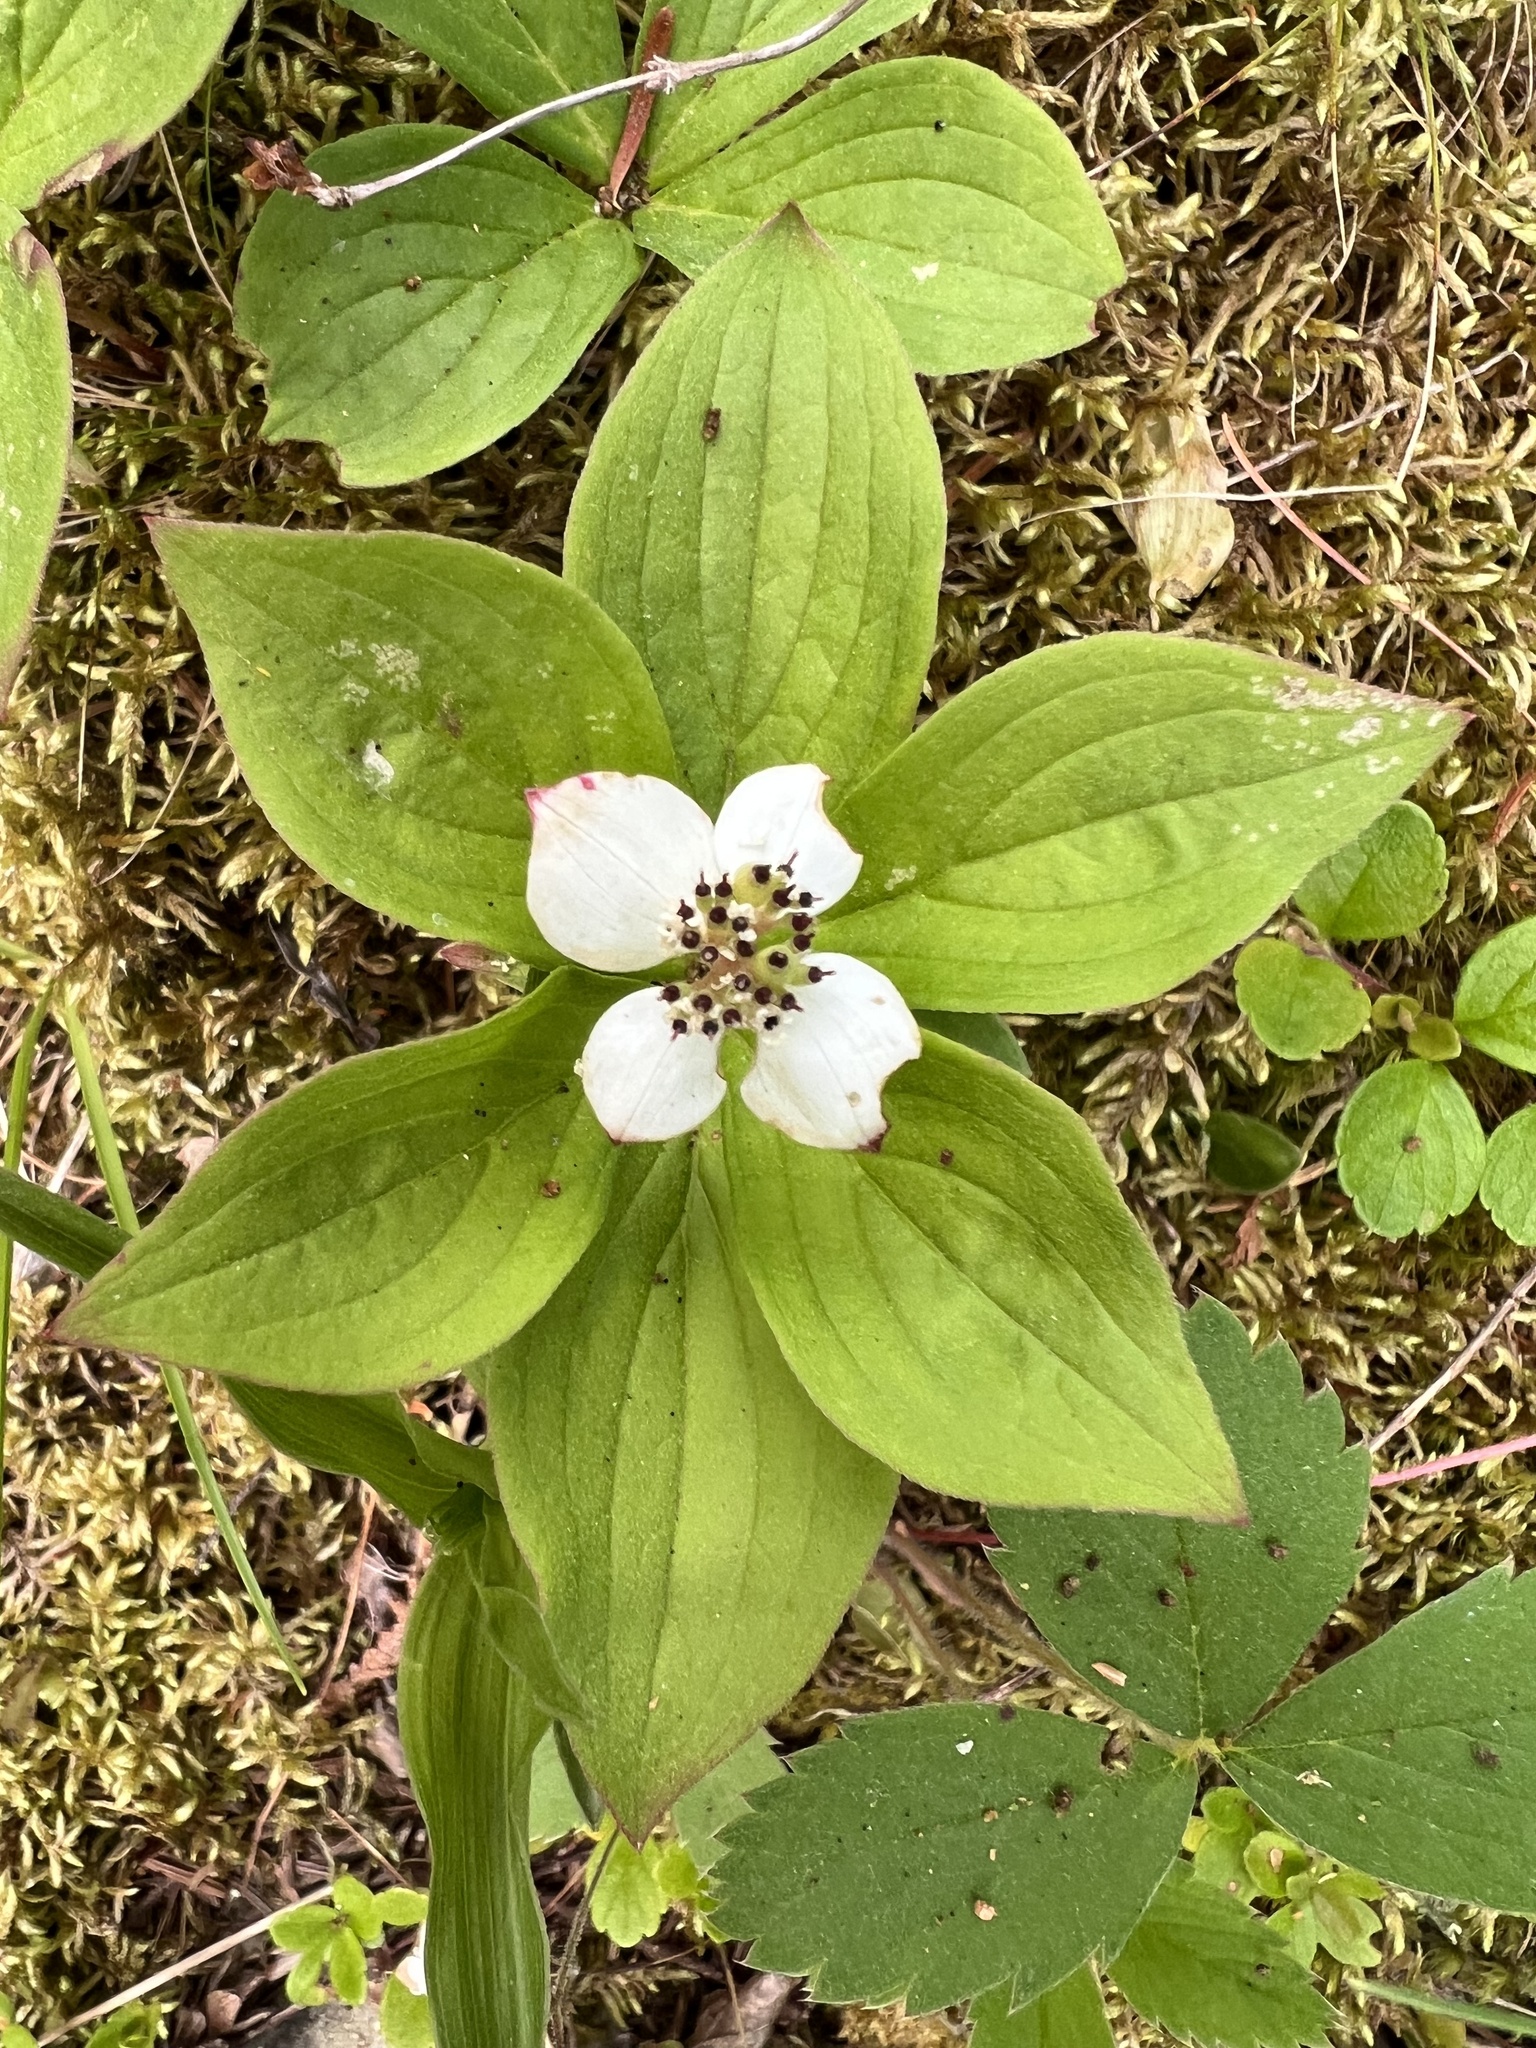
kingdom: Plantae
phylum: Tracheophyta
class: Magnoliopsida
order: Cornales
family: Cornaceae
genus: Cornus
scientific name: Cornus canadensis
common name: Creeping dogwood
